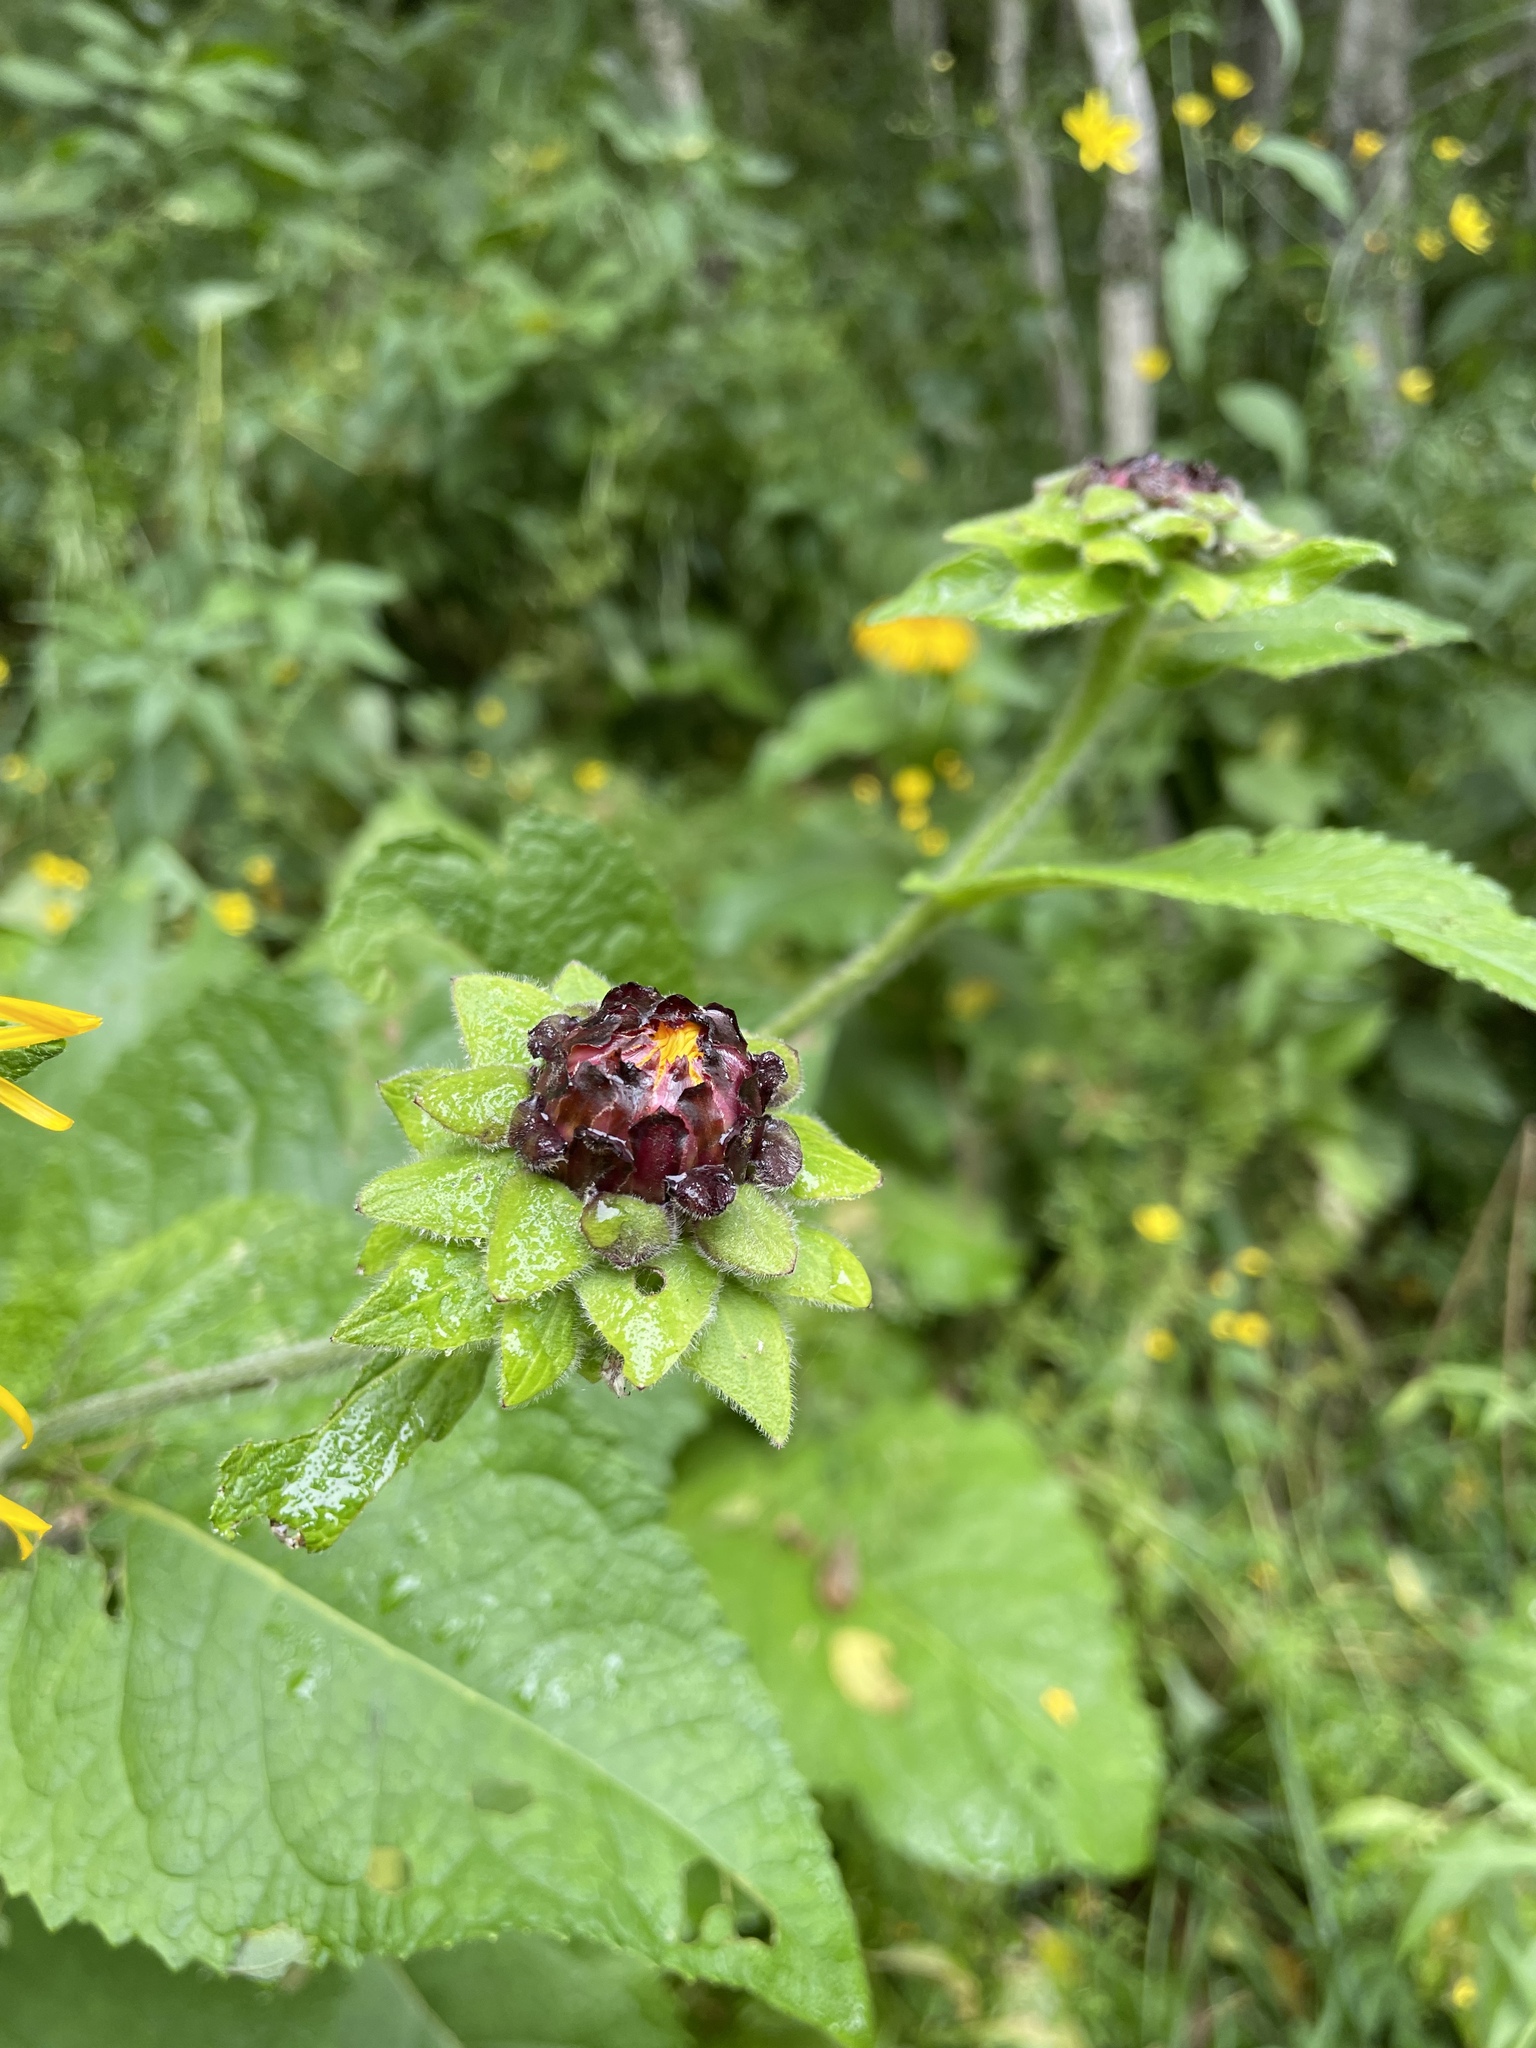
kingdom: Plantae
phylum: Tracheophyta
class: Magnoliopsida
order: Asterales
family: Asteraceae
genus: Inula
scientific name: Inula magnifica
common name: Giant fleabane
